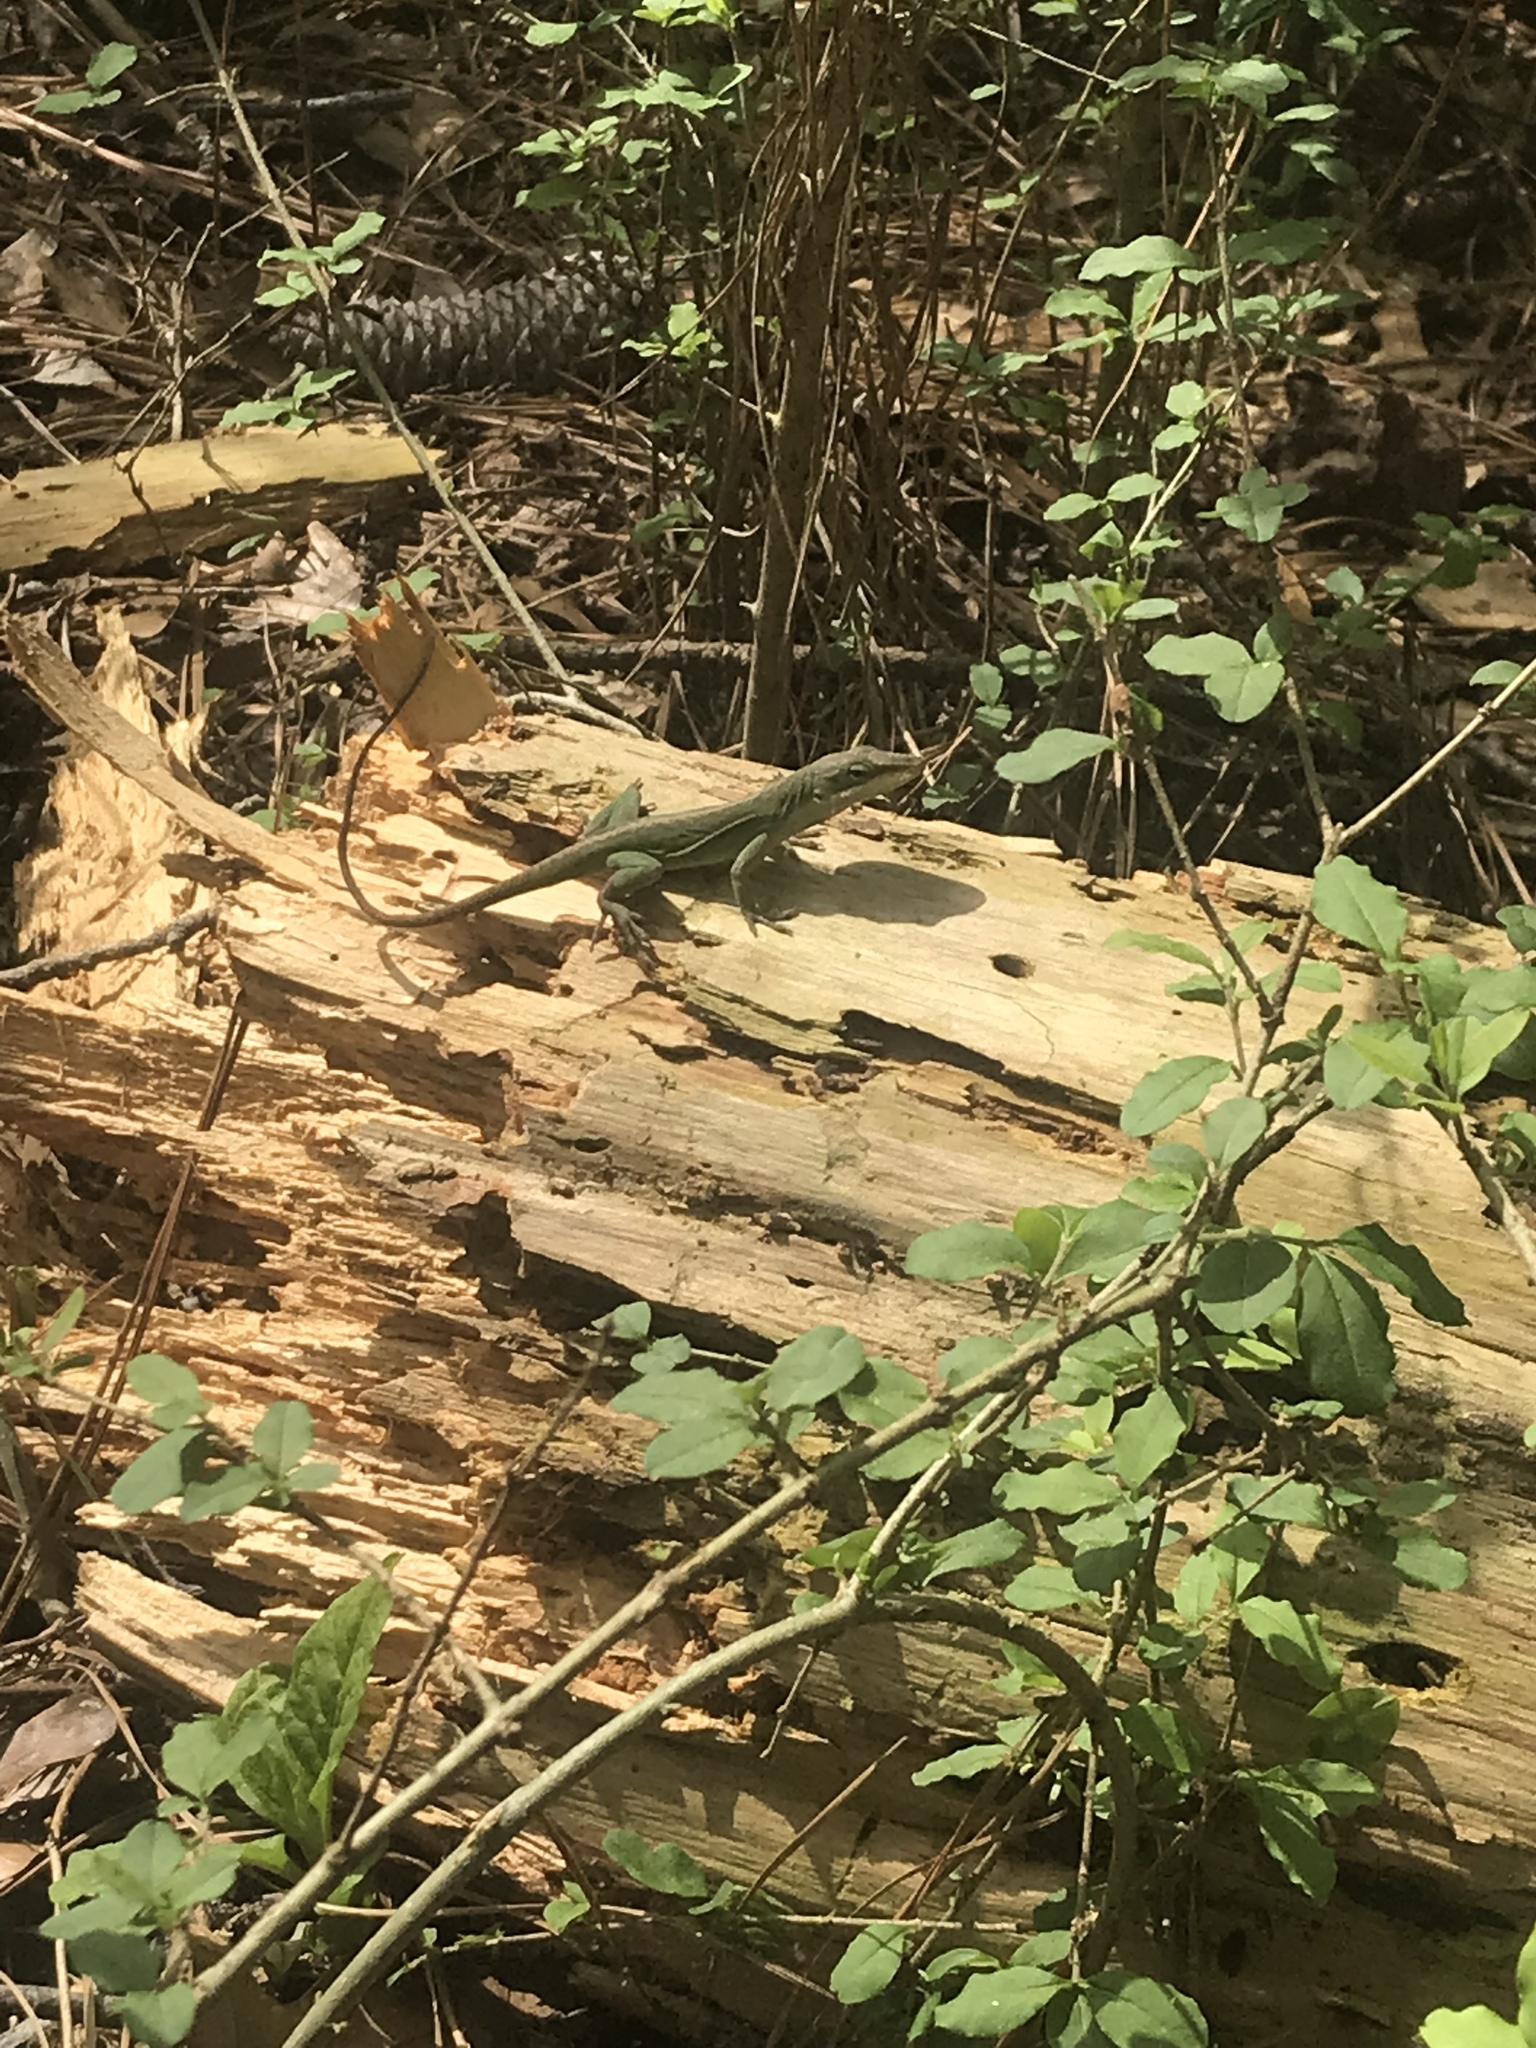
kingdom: Animalia
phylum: Chordata
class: Squamata
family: Dactyloidae
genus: Anolis
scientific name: Anolis carolinensis
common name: Green anole
